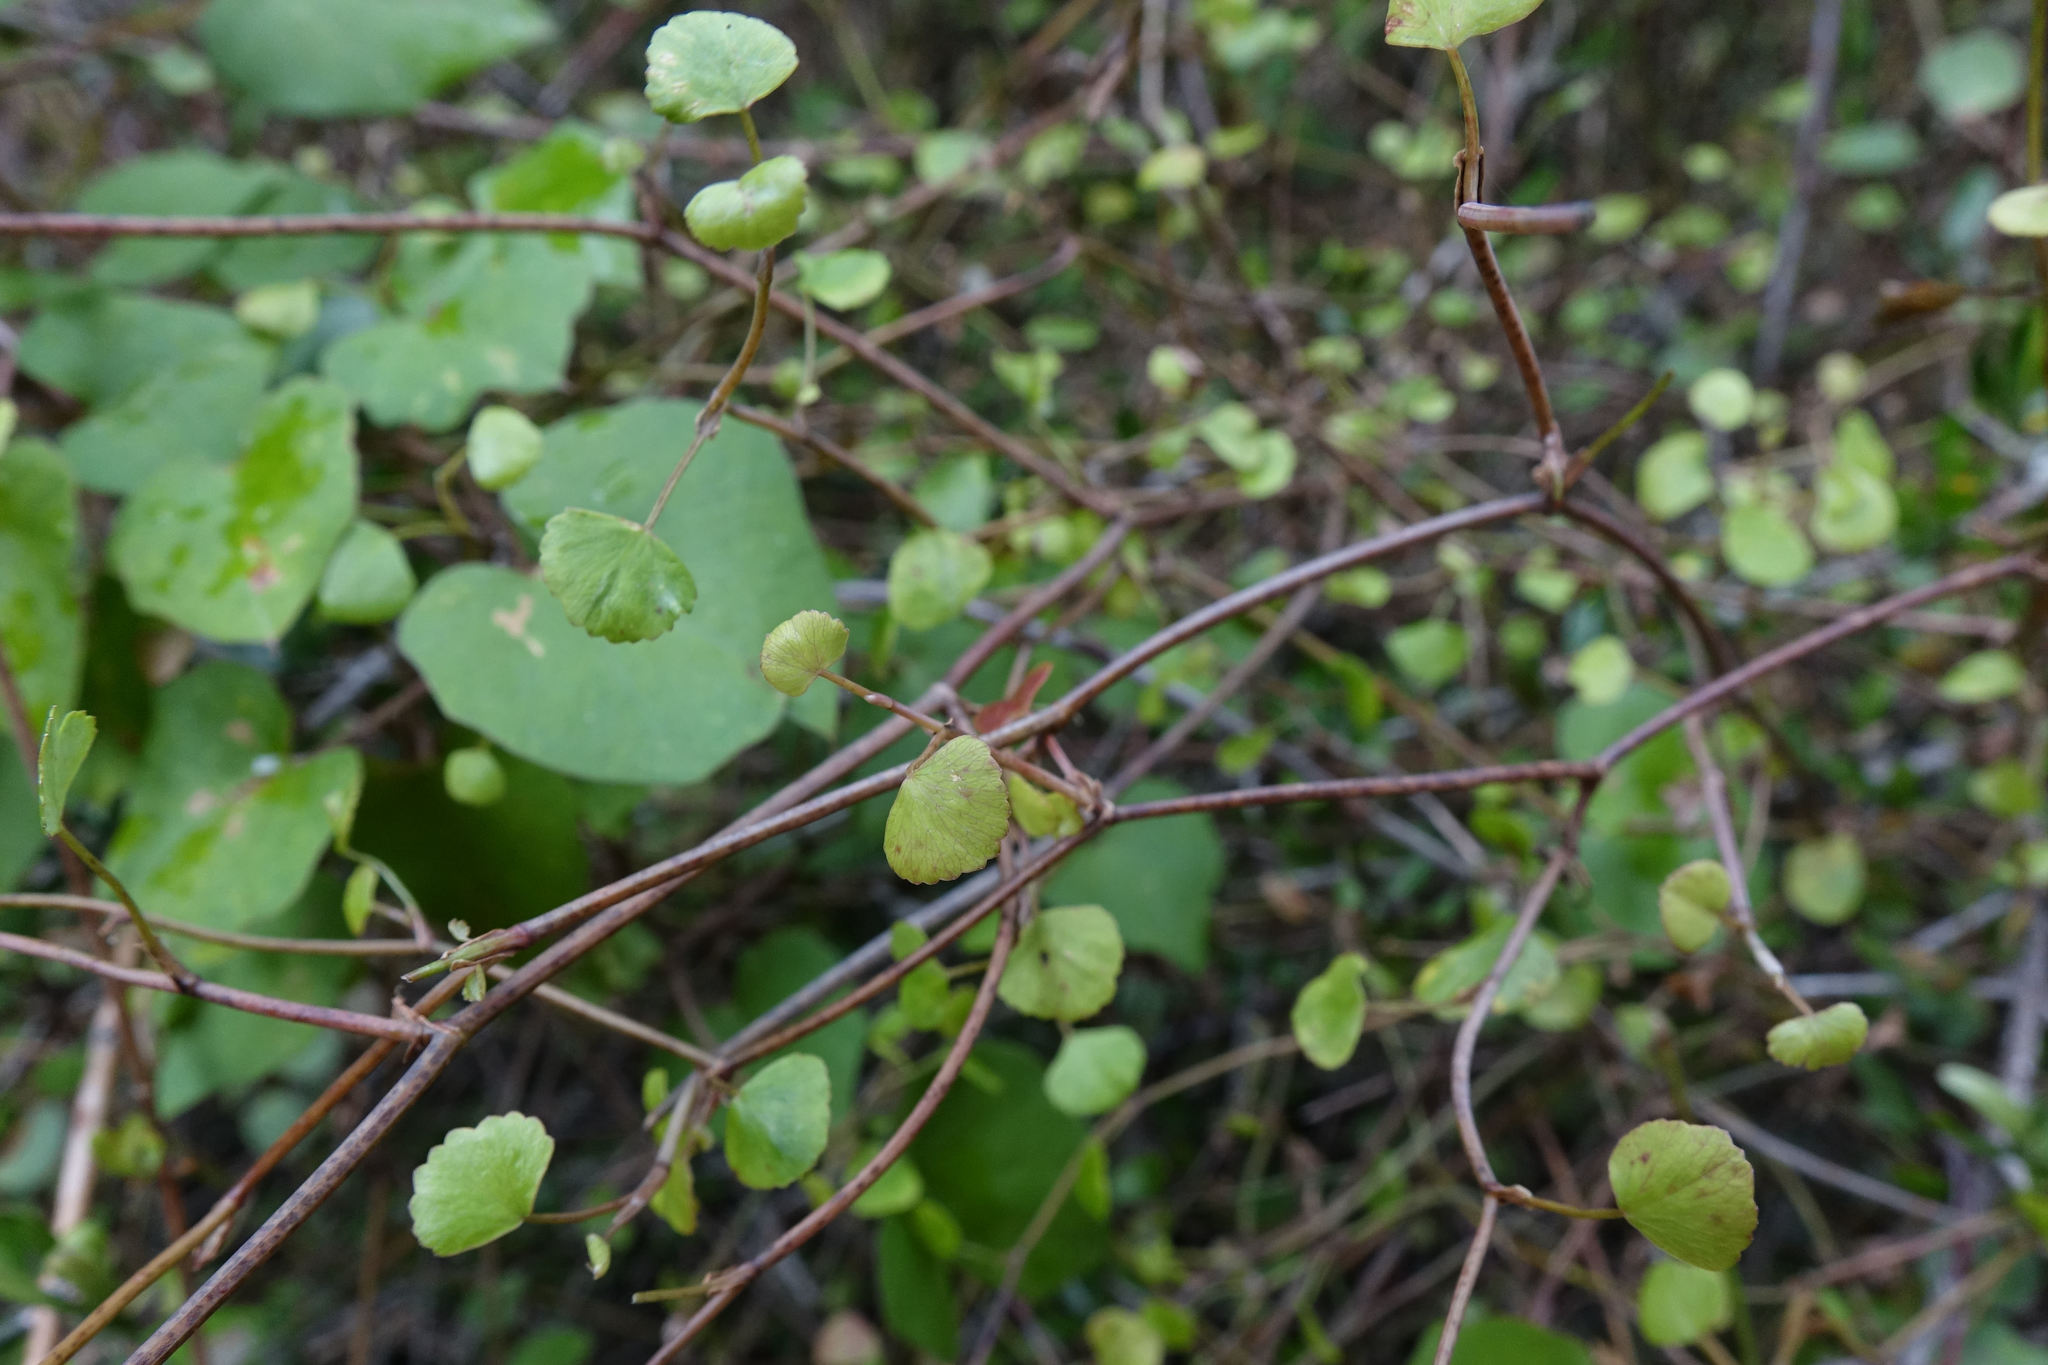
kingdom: Plantae
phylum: Tracheophyta
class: Magnoliopsida
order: Apiales
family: Apiaceae
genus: Scandia
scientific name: Scandia geniculata
